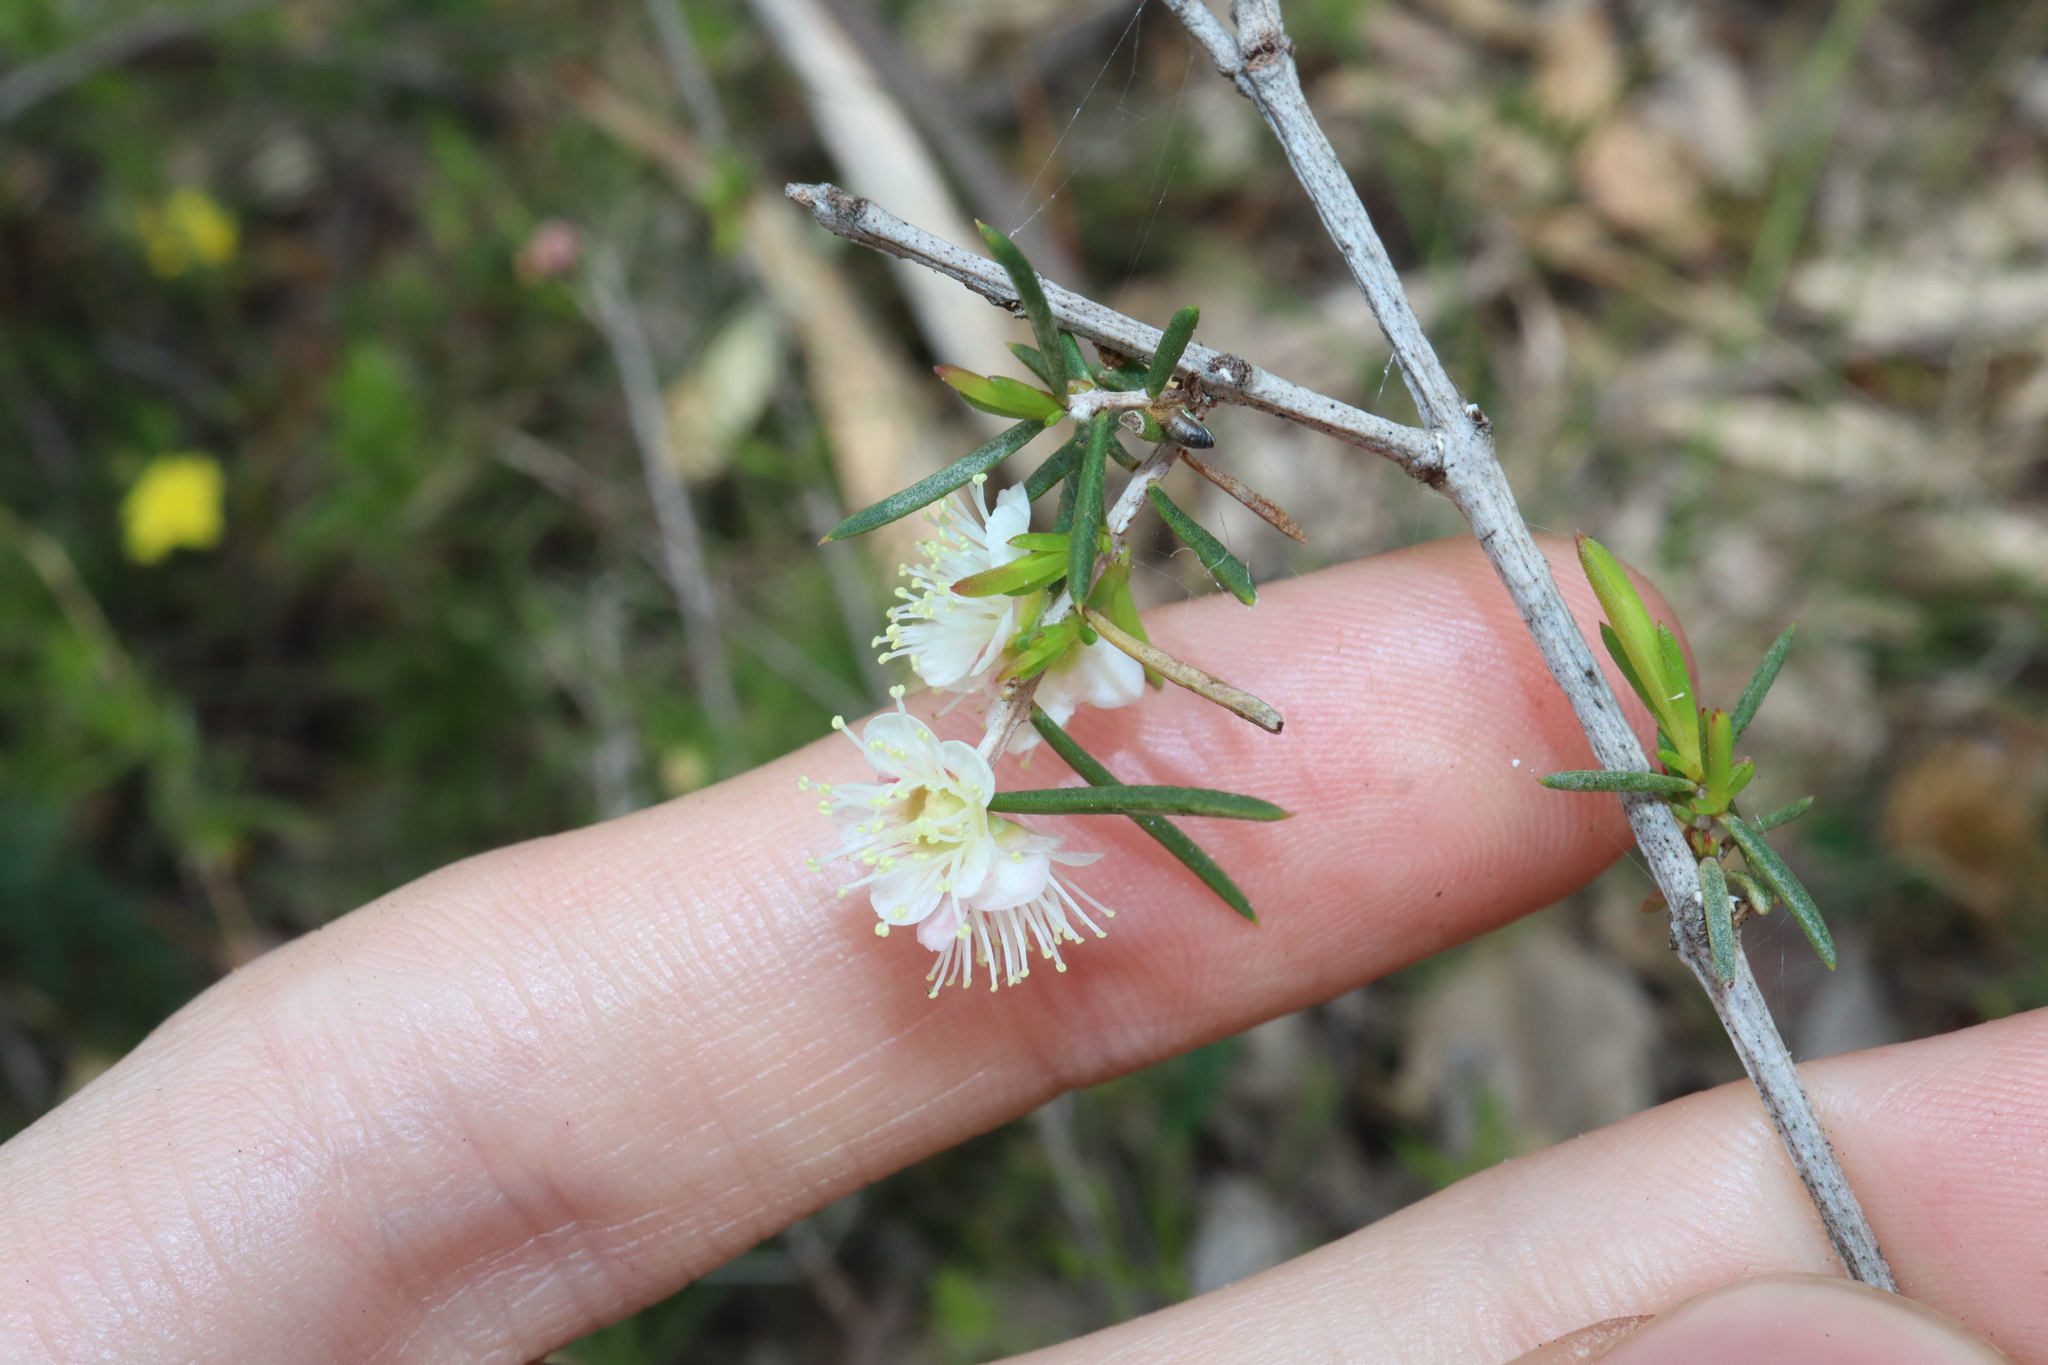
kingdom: Plantae
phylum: Tracheophyta
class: Magnoliopsida
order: Myrtales
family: Myrtaceae
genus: Hypocalymma
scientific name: Hypocalymma angustifolium
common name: White myrtle
